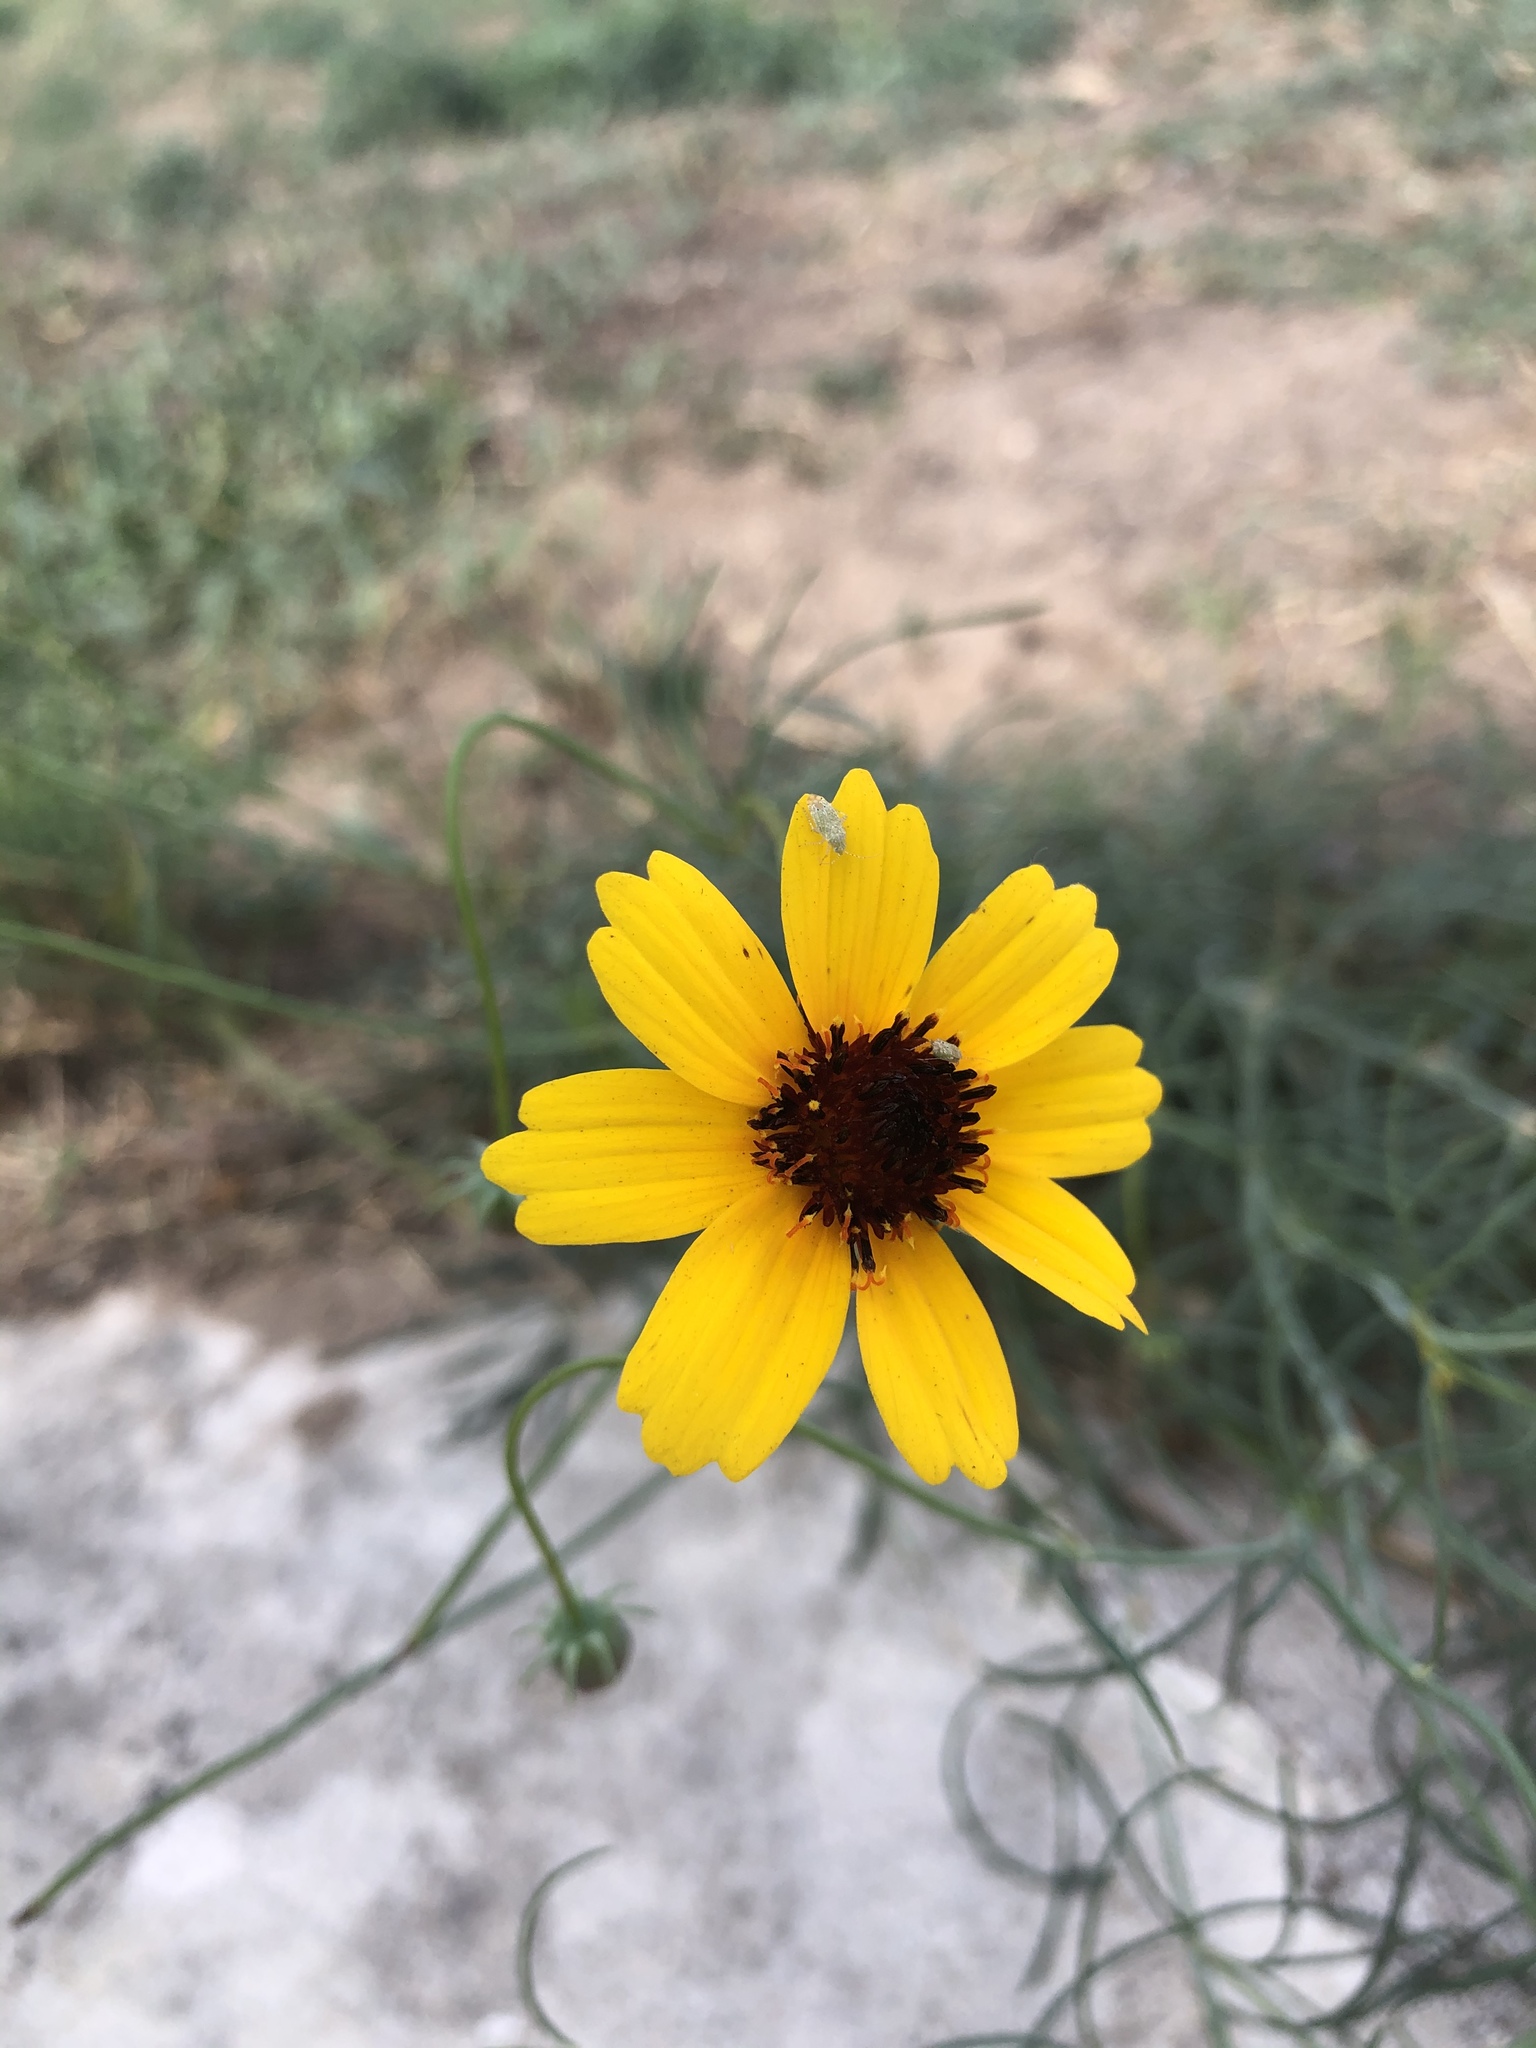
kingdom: Plantae
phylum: Tracheophyta
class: Magnoliopsida
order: Asterales
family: Asteraceae
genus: Thelesperma
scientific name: Thelesperma filifolium
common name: Stiff greenthread
